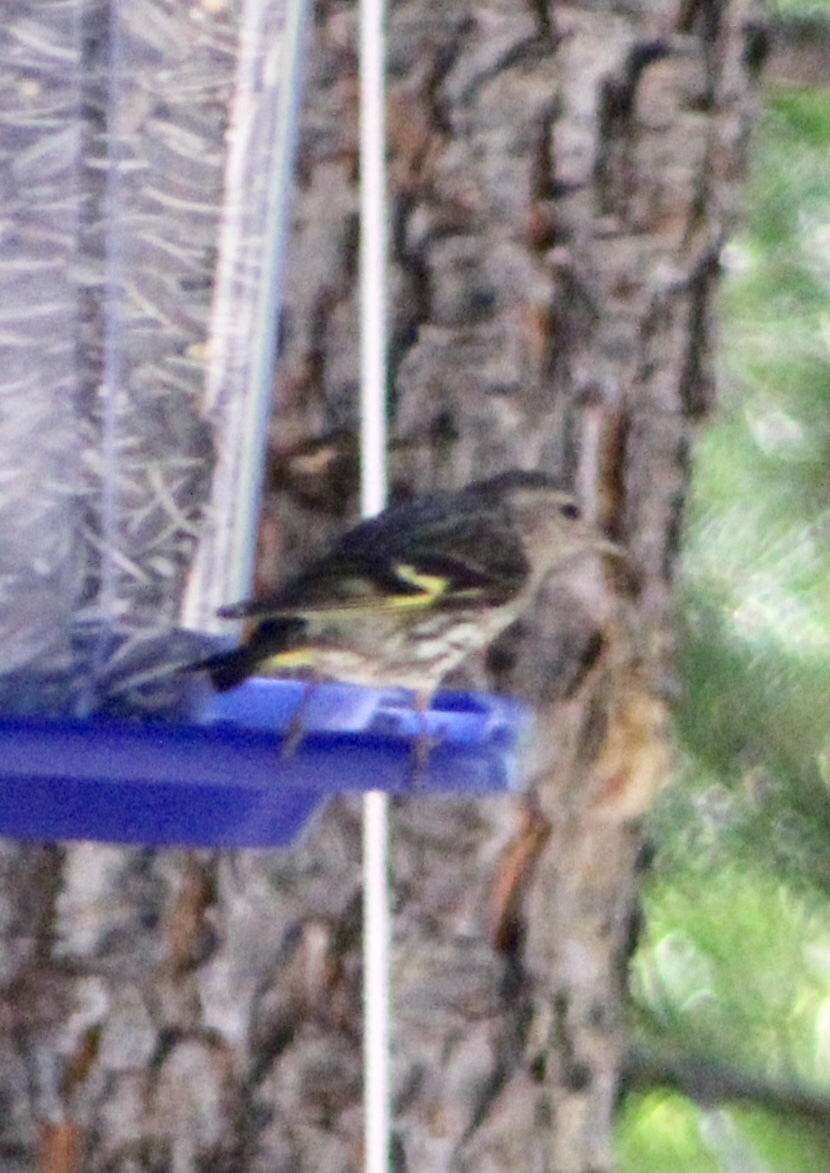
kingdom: Animalia
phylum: Chordata
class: Aves
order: Passeriformes
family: Fringillidae
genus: Spinus
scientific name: Spinus pinus
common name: Pine siskin
